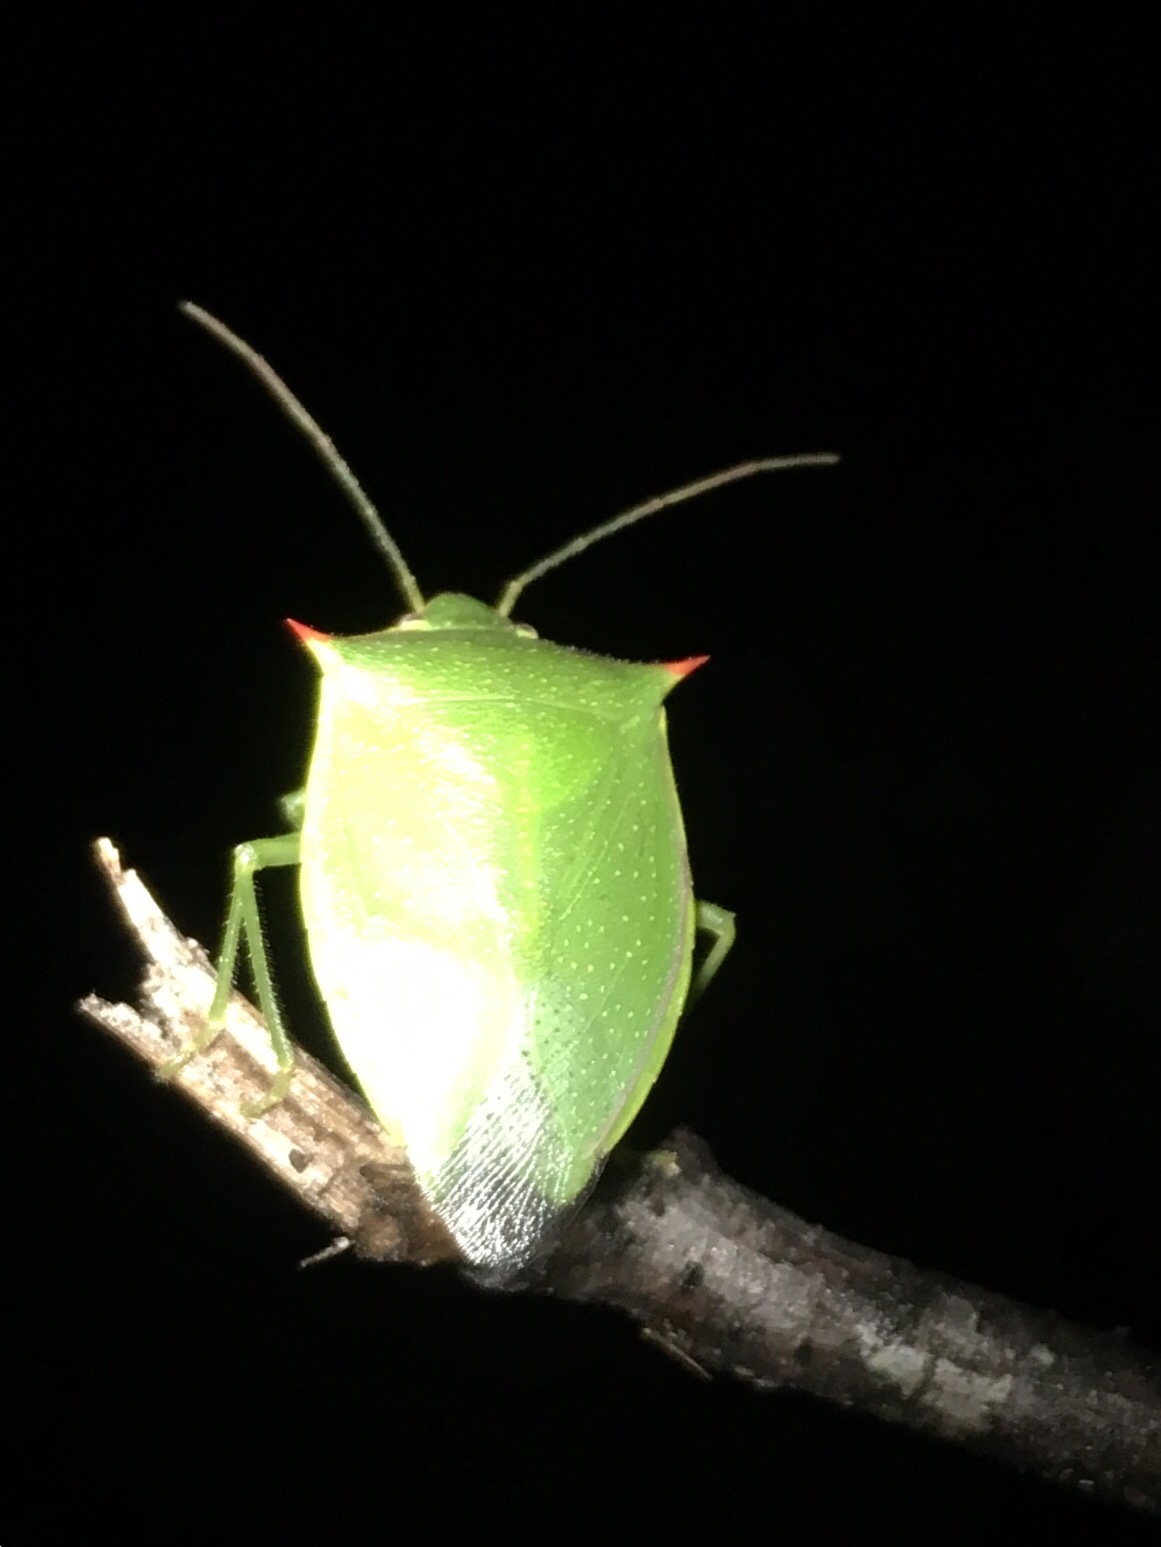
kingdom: Animalia
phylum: Arthropoda
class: Insecta
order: Hemiptera
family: Pentatomidae
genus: Loxa
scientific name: Loxa flavicollis
